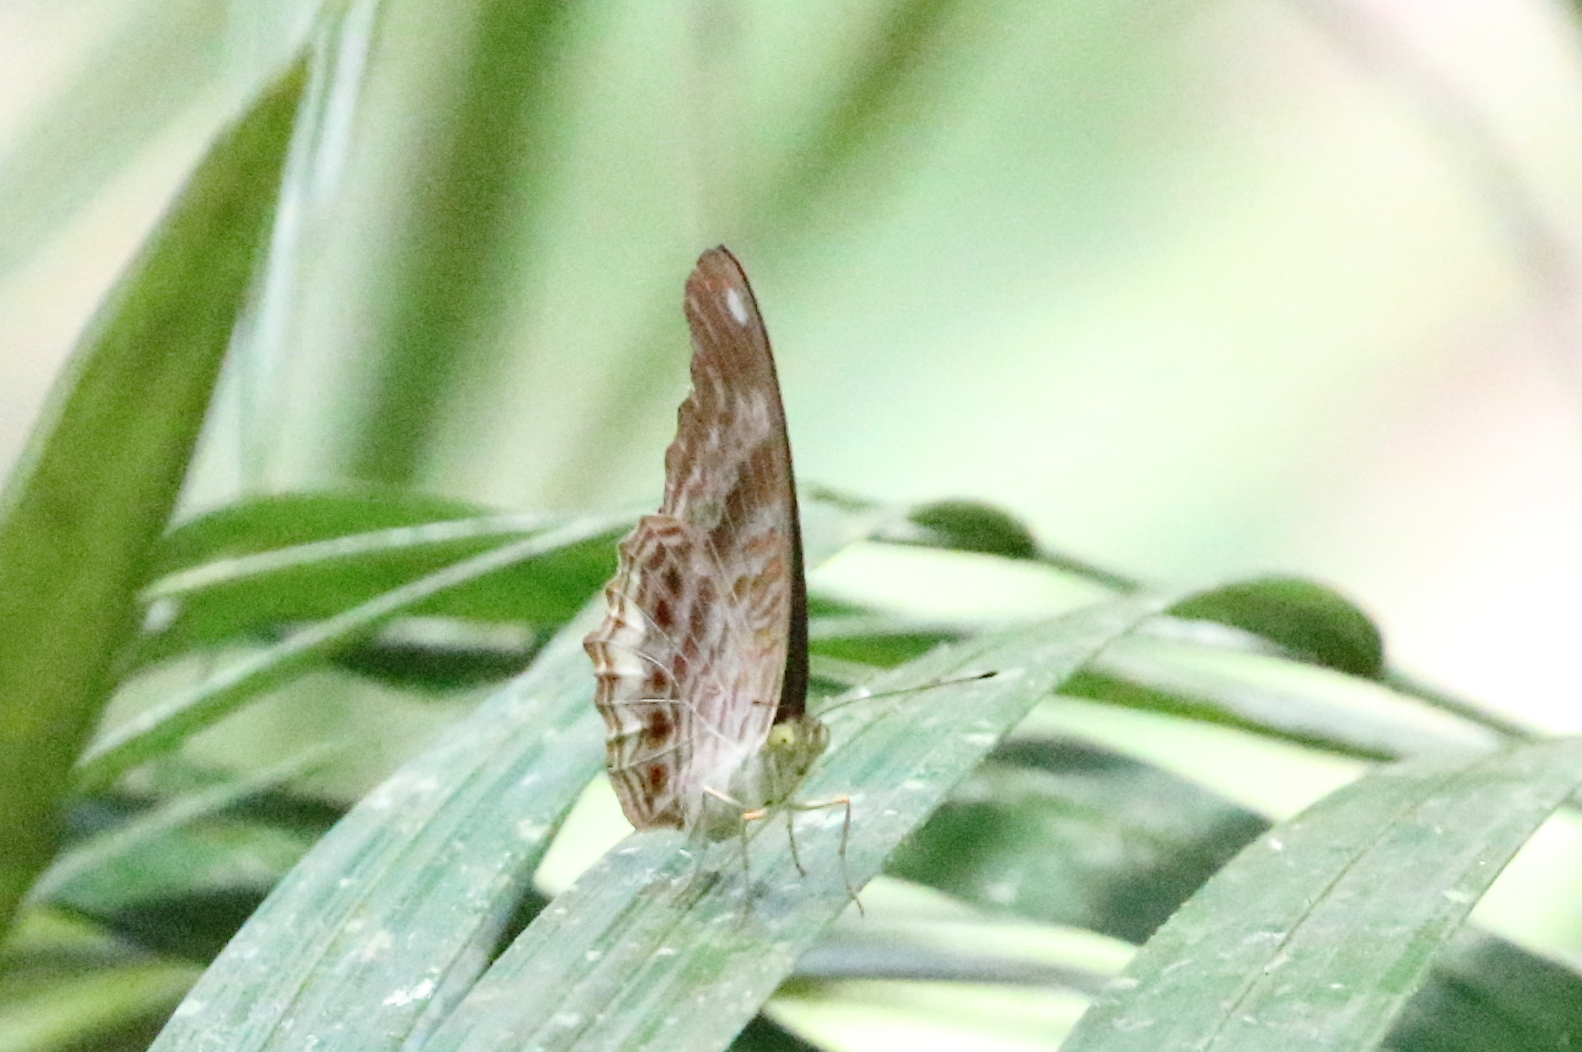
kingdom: Animalia
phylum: Arthropoda
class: Insecta
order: Lepidoptera
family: Nymphalidae
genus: Terinos
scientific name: Terinos terpander
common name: Royal assyrian
